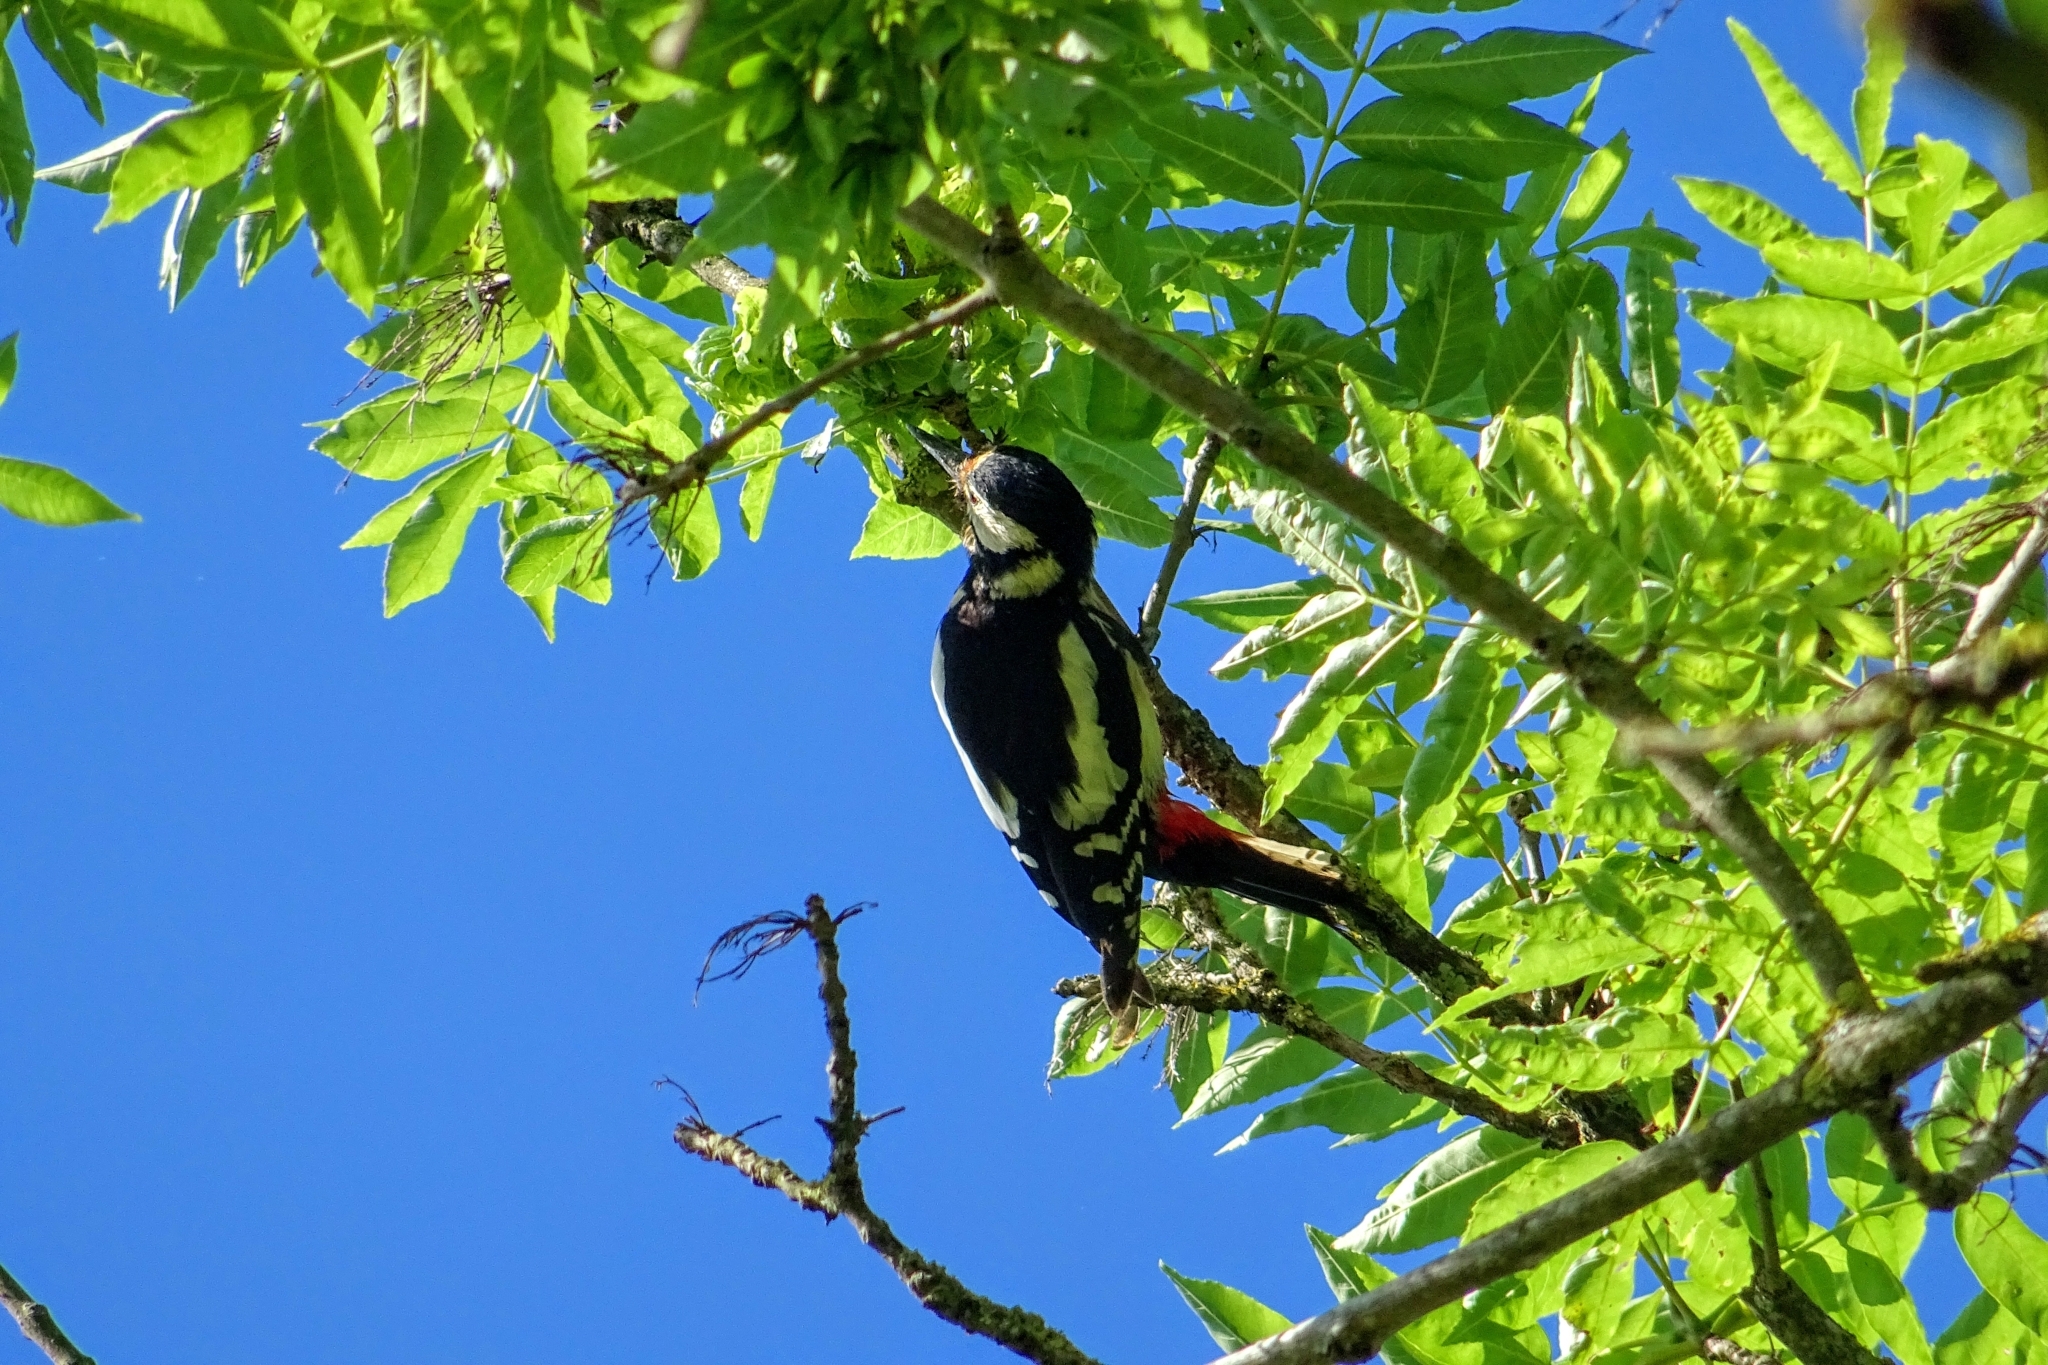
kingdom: Animalia
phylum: Chordata
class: Aves
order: Piciformes
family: Picidae
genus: Dendrocopos
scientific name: Dendrocopos major
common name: Great spotted woodpecker
